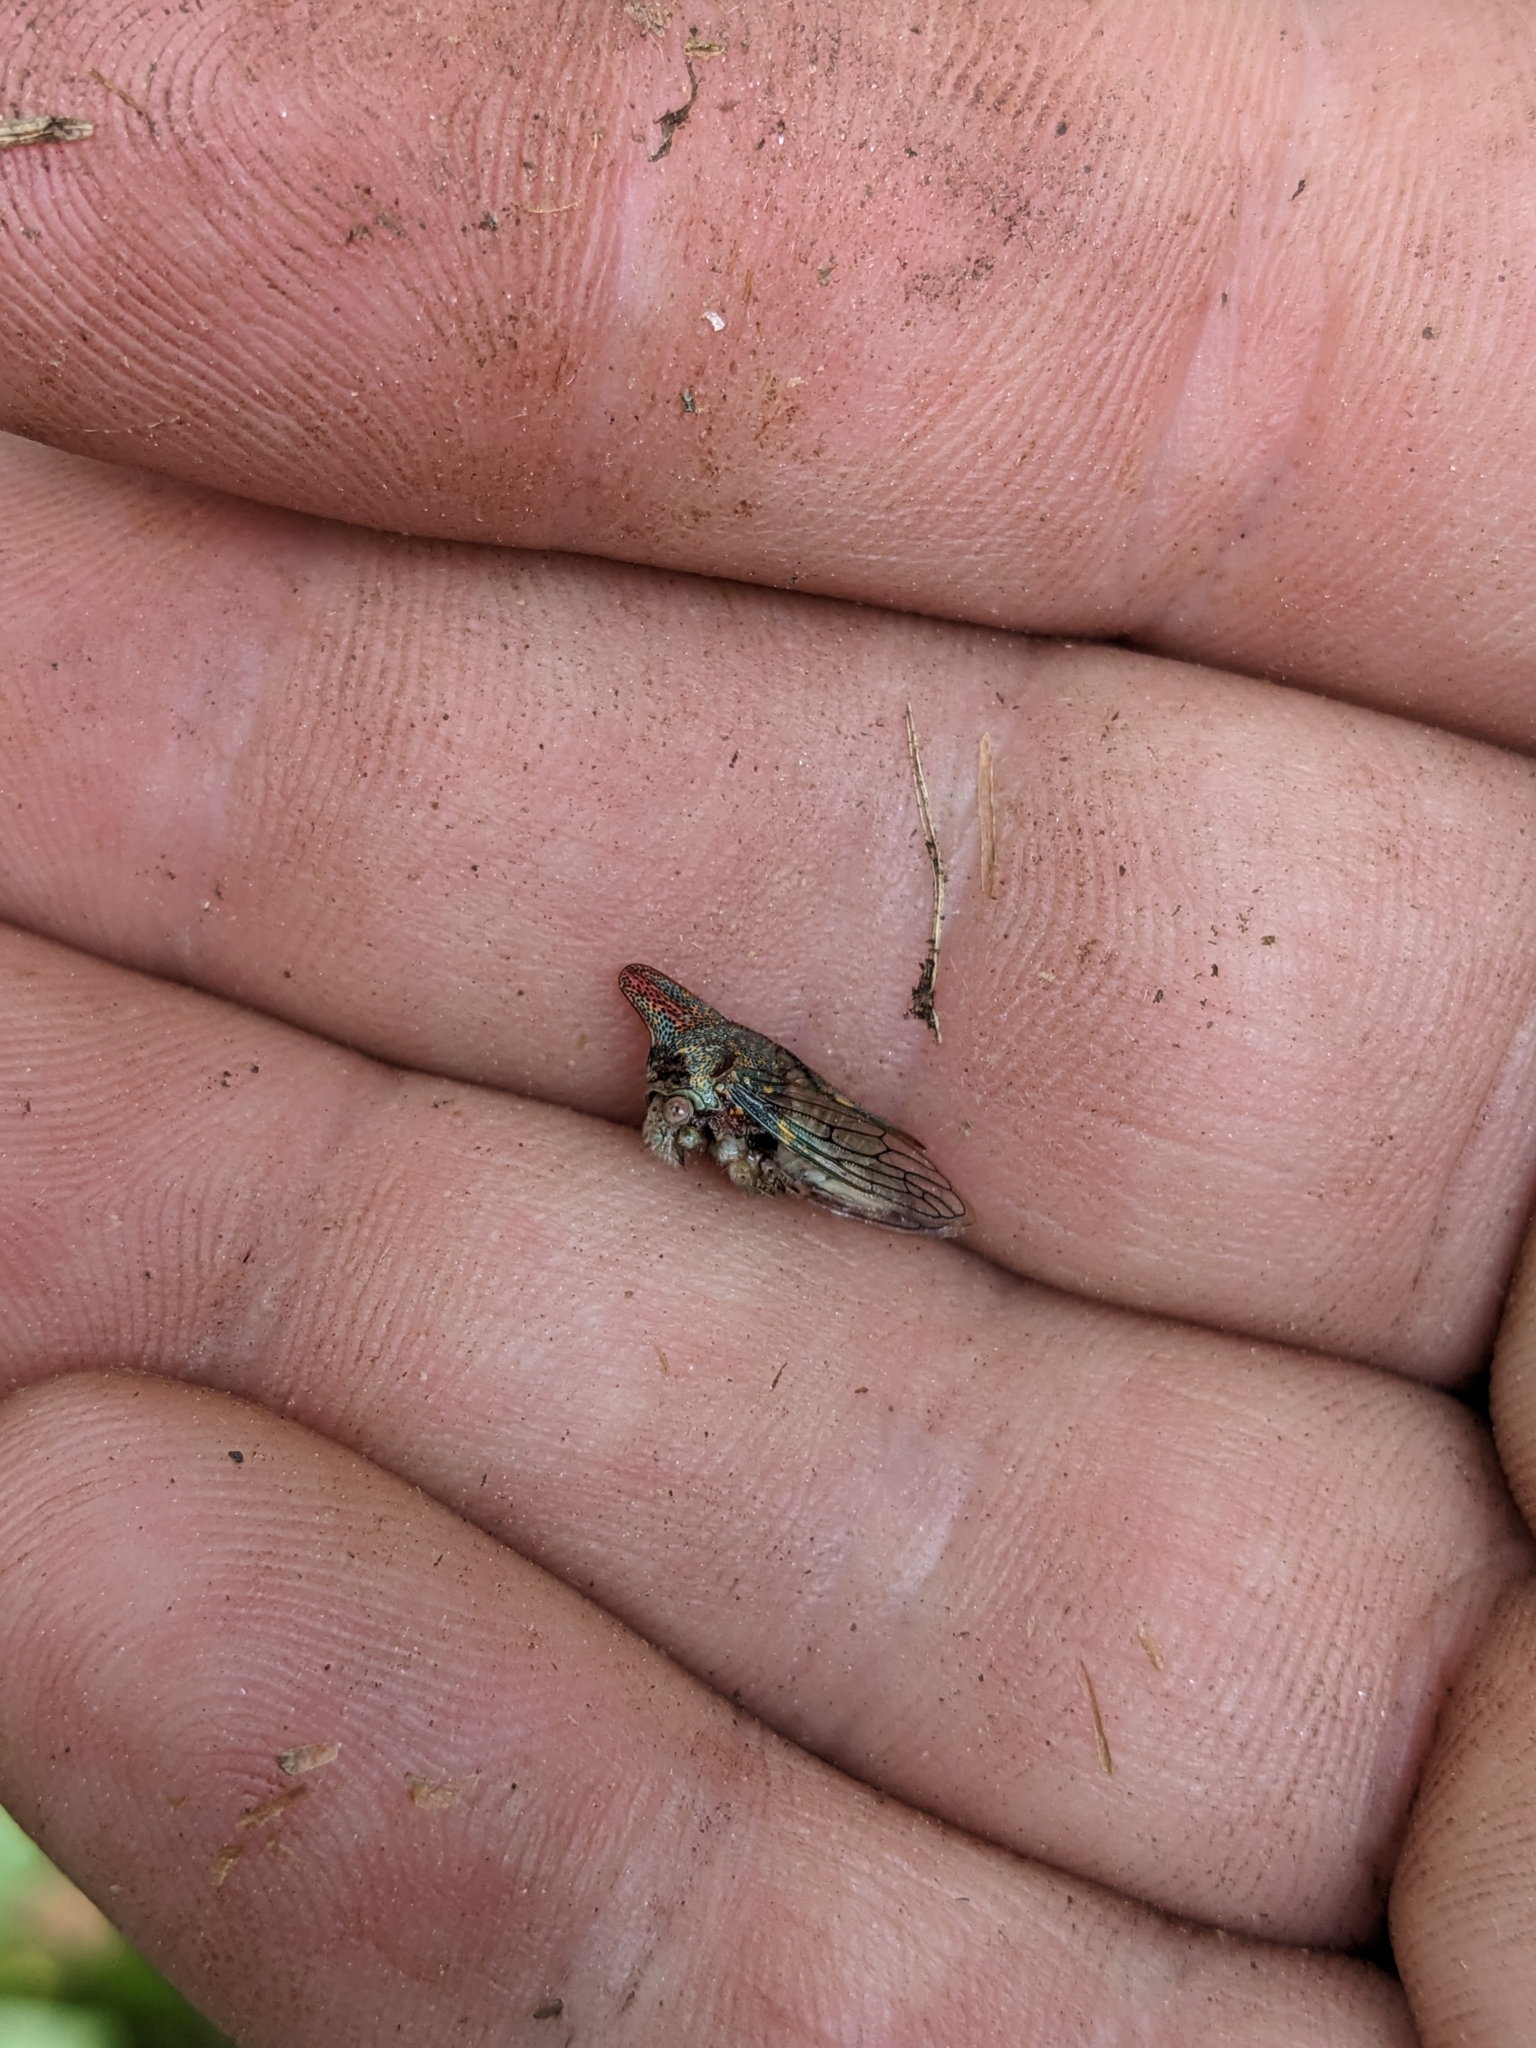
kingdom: Animalia
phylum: Arthropoda
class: Insecta
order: Hemiptera
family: Membracidae
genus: Platycotis
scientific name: Platycotis vittatus
